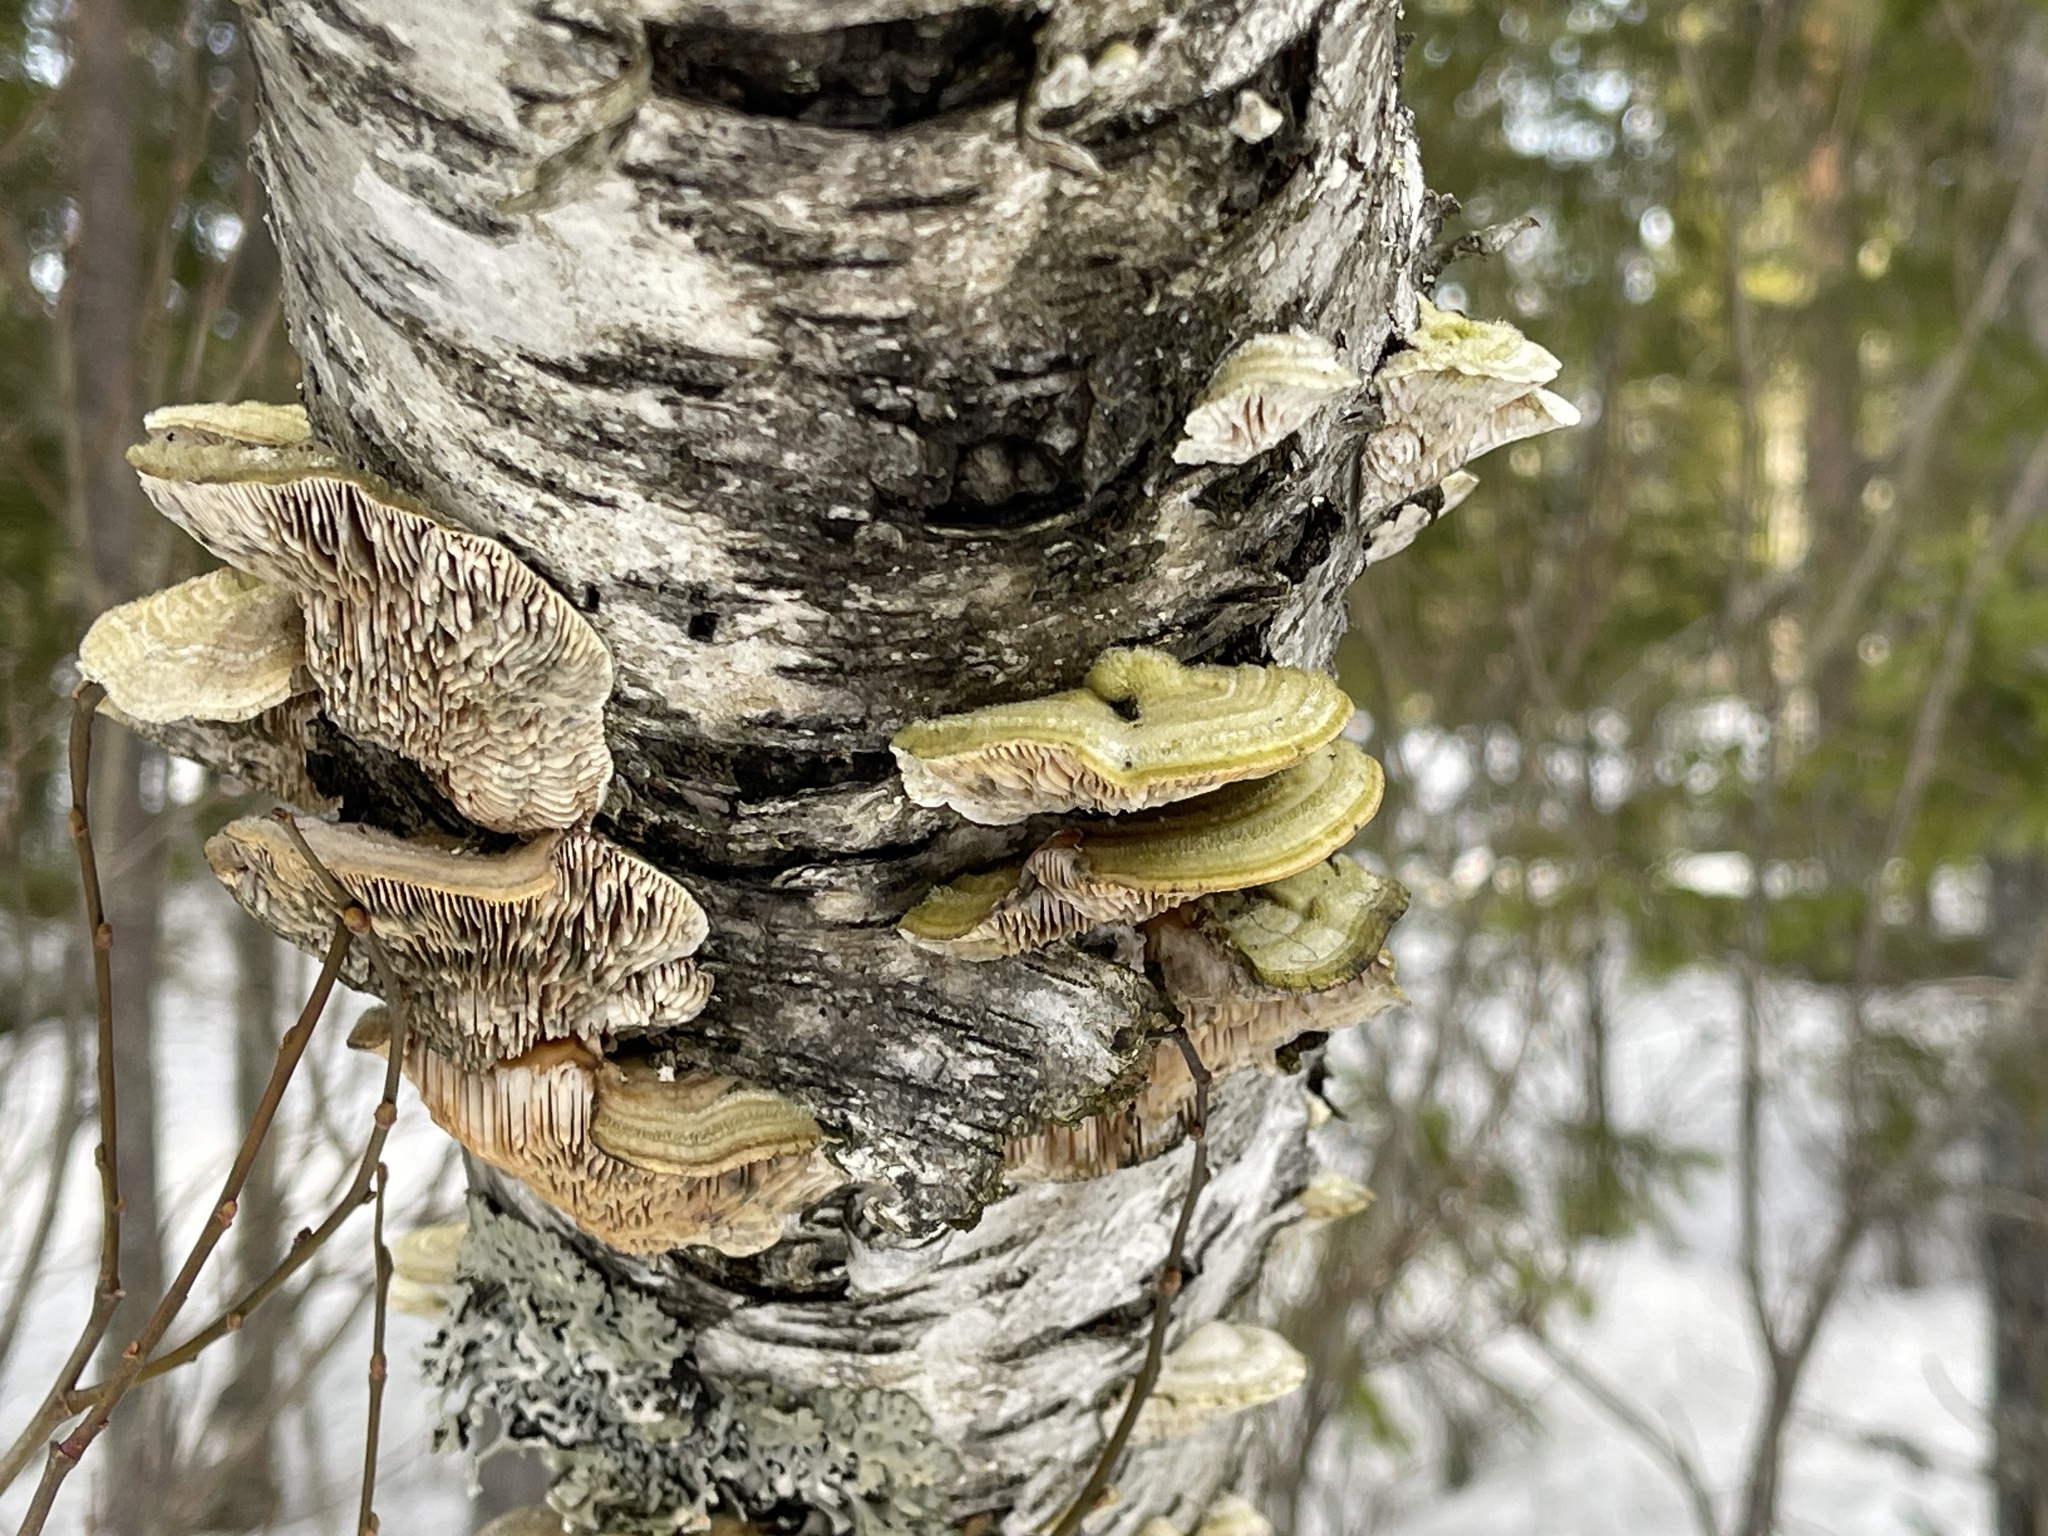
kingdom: Fungi
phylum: Basidiomycota
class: Agaricomycetes
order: Polyporales
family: Polyporaceae
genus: Lenzites
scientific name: Lenzites betulinus
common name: Birch mazegill
